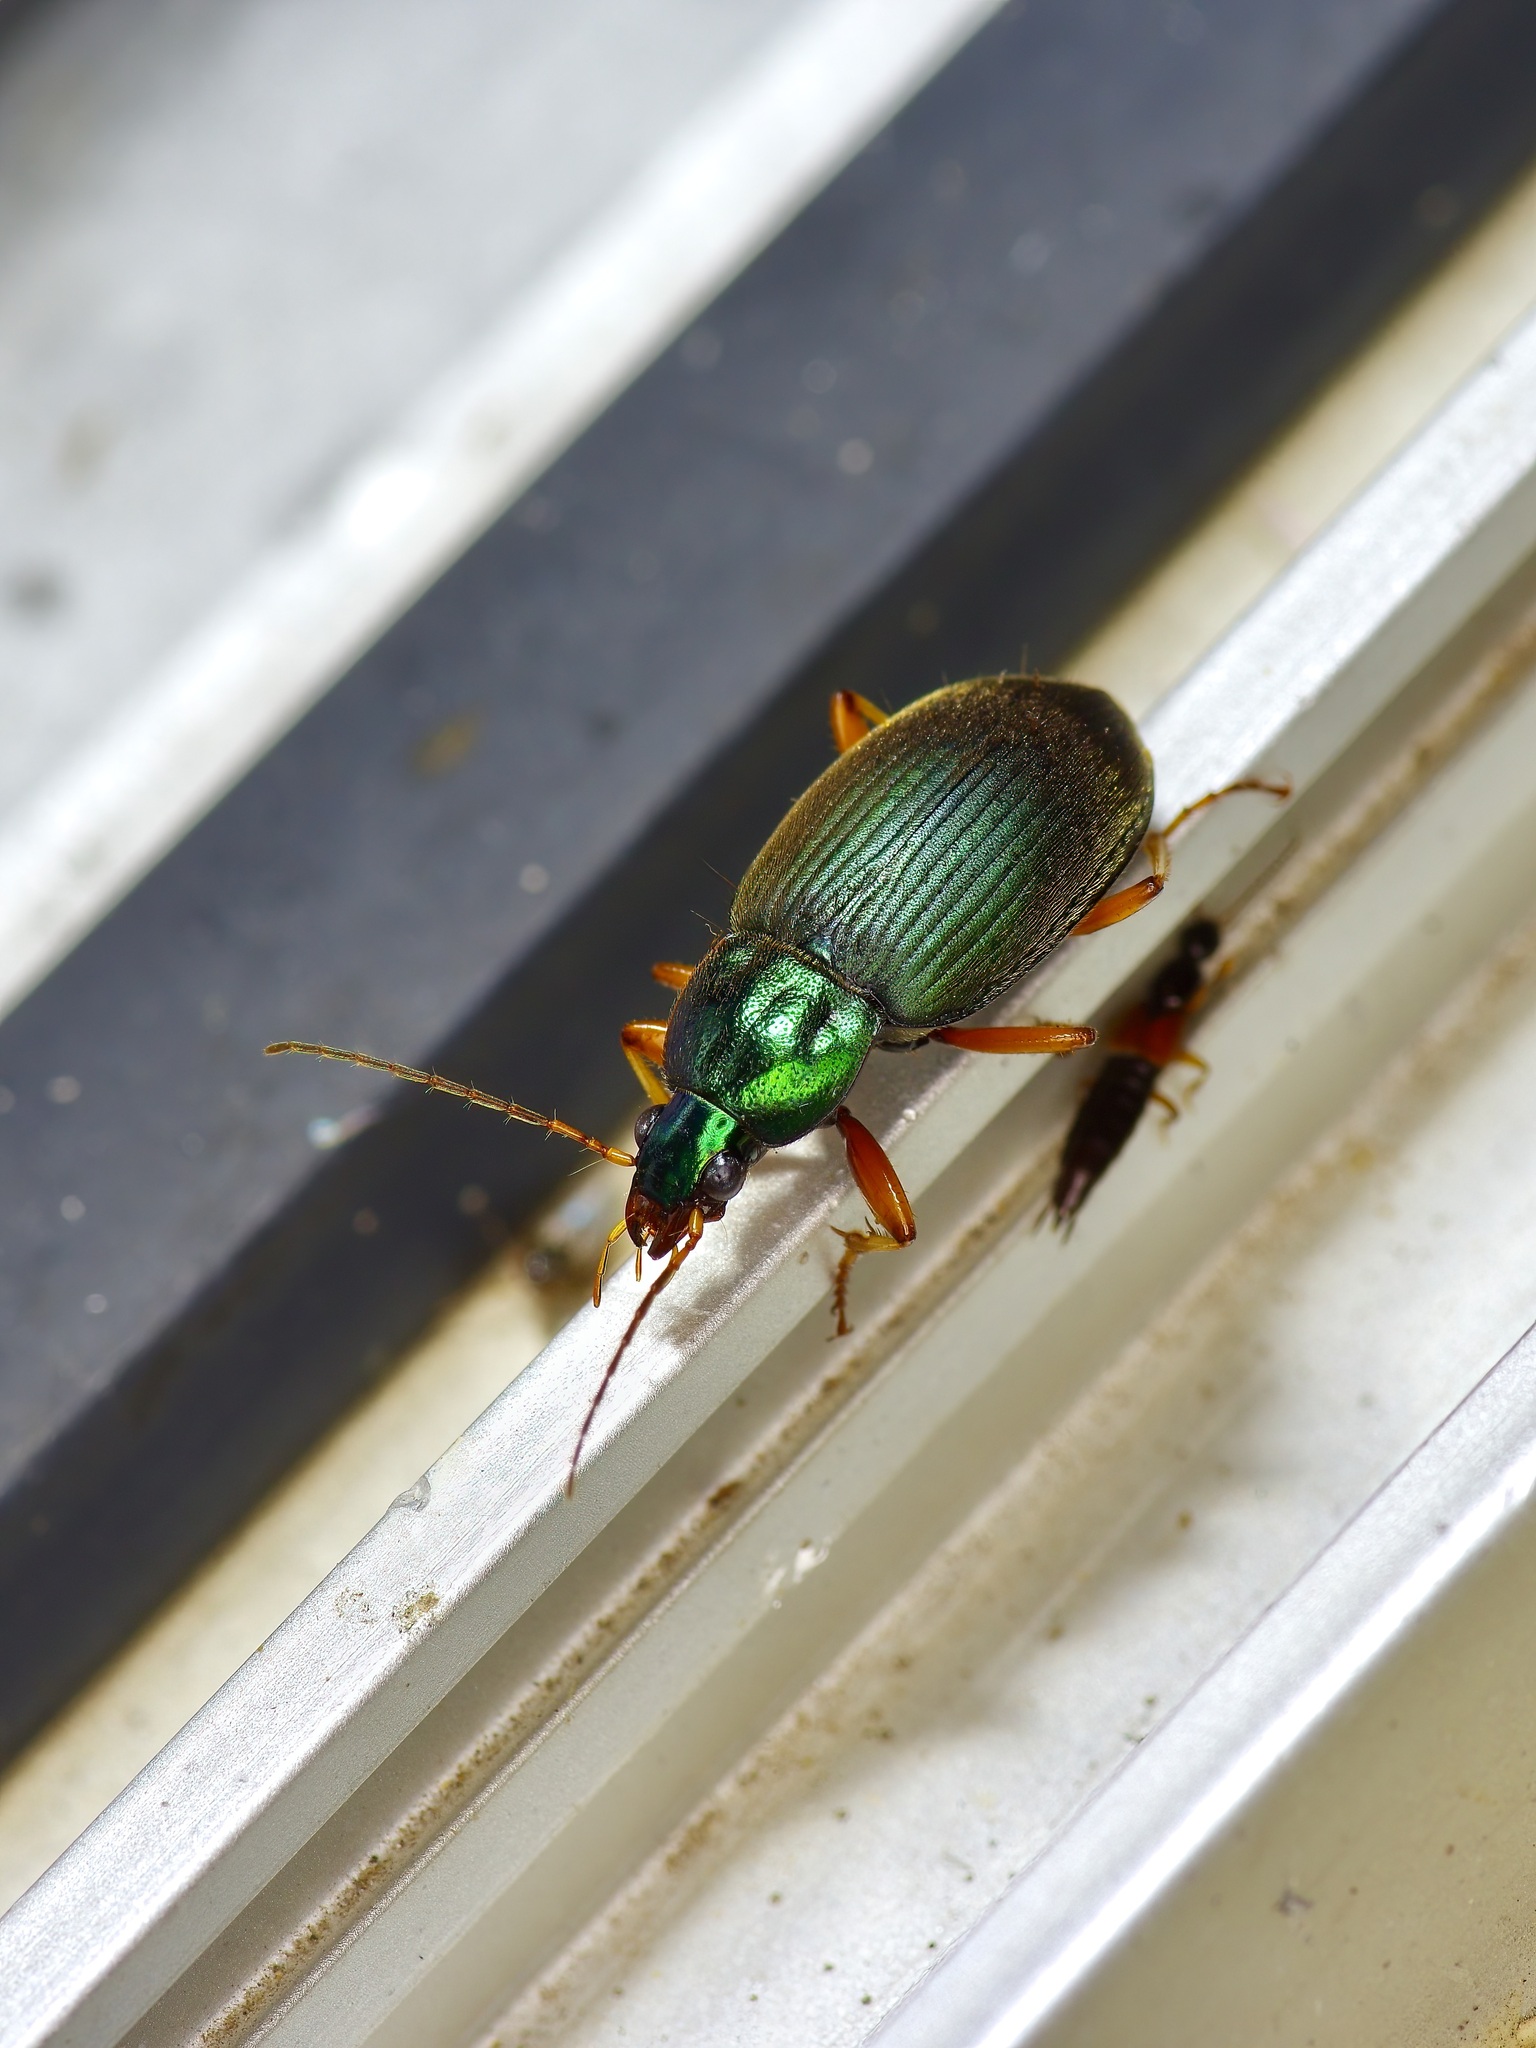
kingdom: Animalia
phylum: Arthropoda
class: Insecta
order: Coleoptera
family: Carabidae
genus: Chlaenius
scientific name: Chlaenius prasinus
